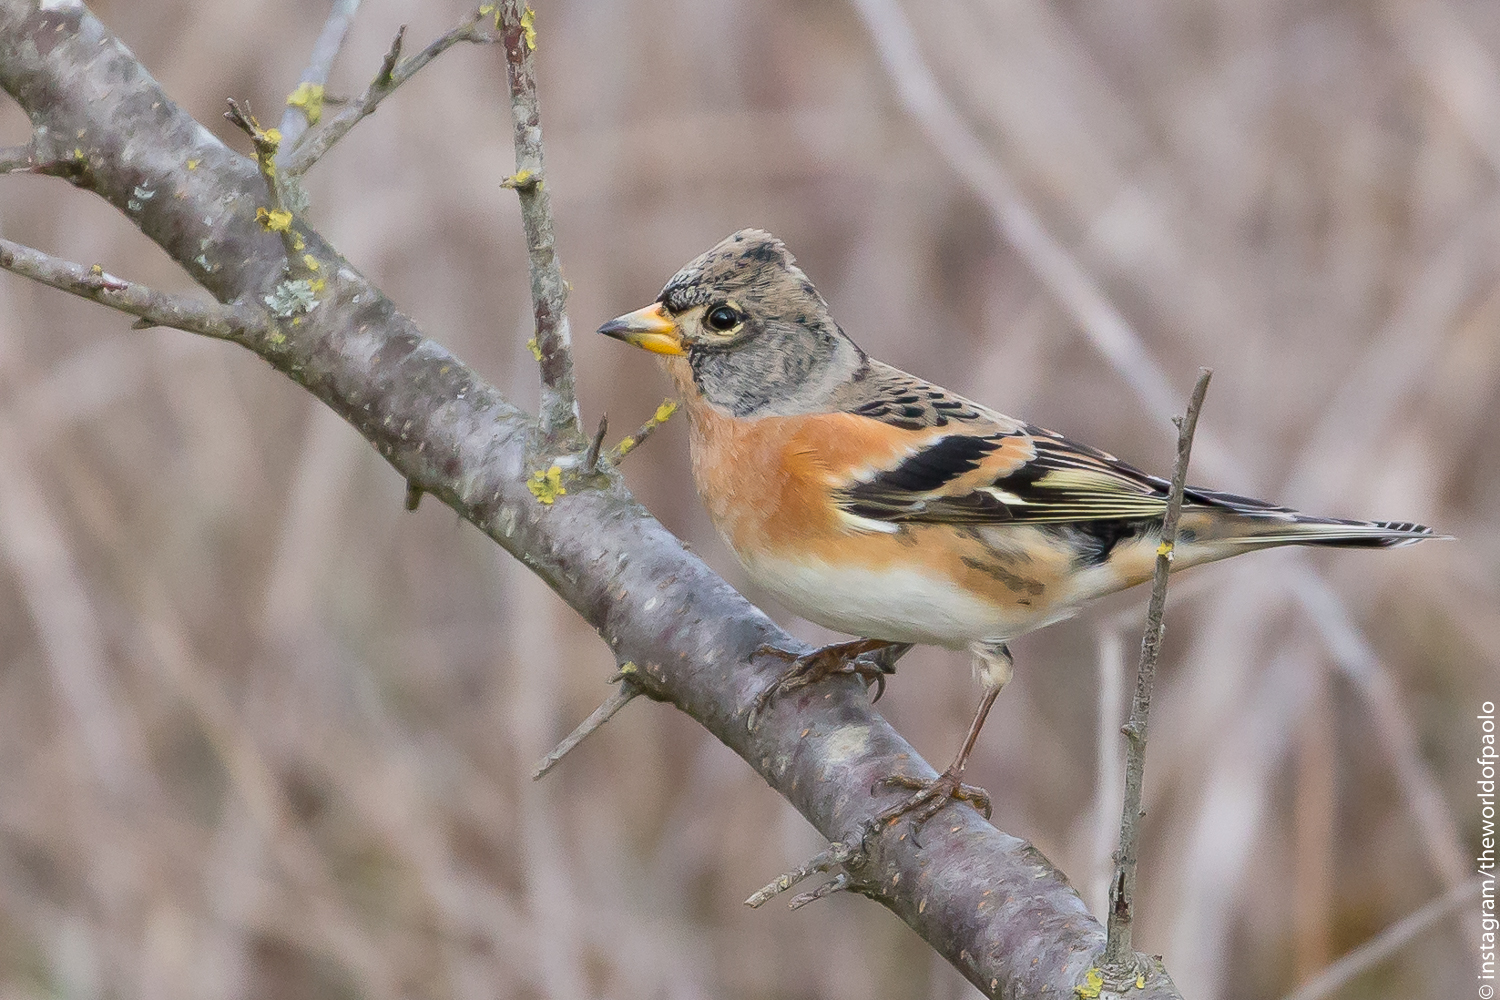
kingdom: Animalia
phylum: Chordata
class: Aves
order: Passeriformes
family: Fringillidae
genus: Fringilla
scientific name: Fringilla montifringilla
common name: Brambling
